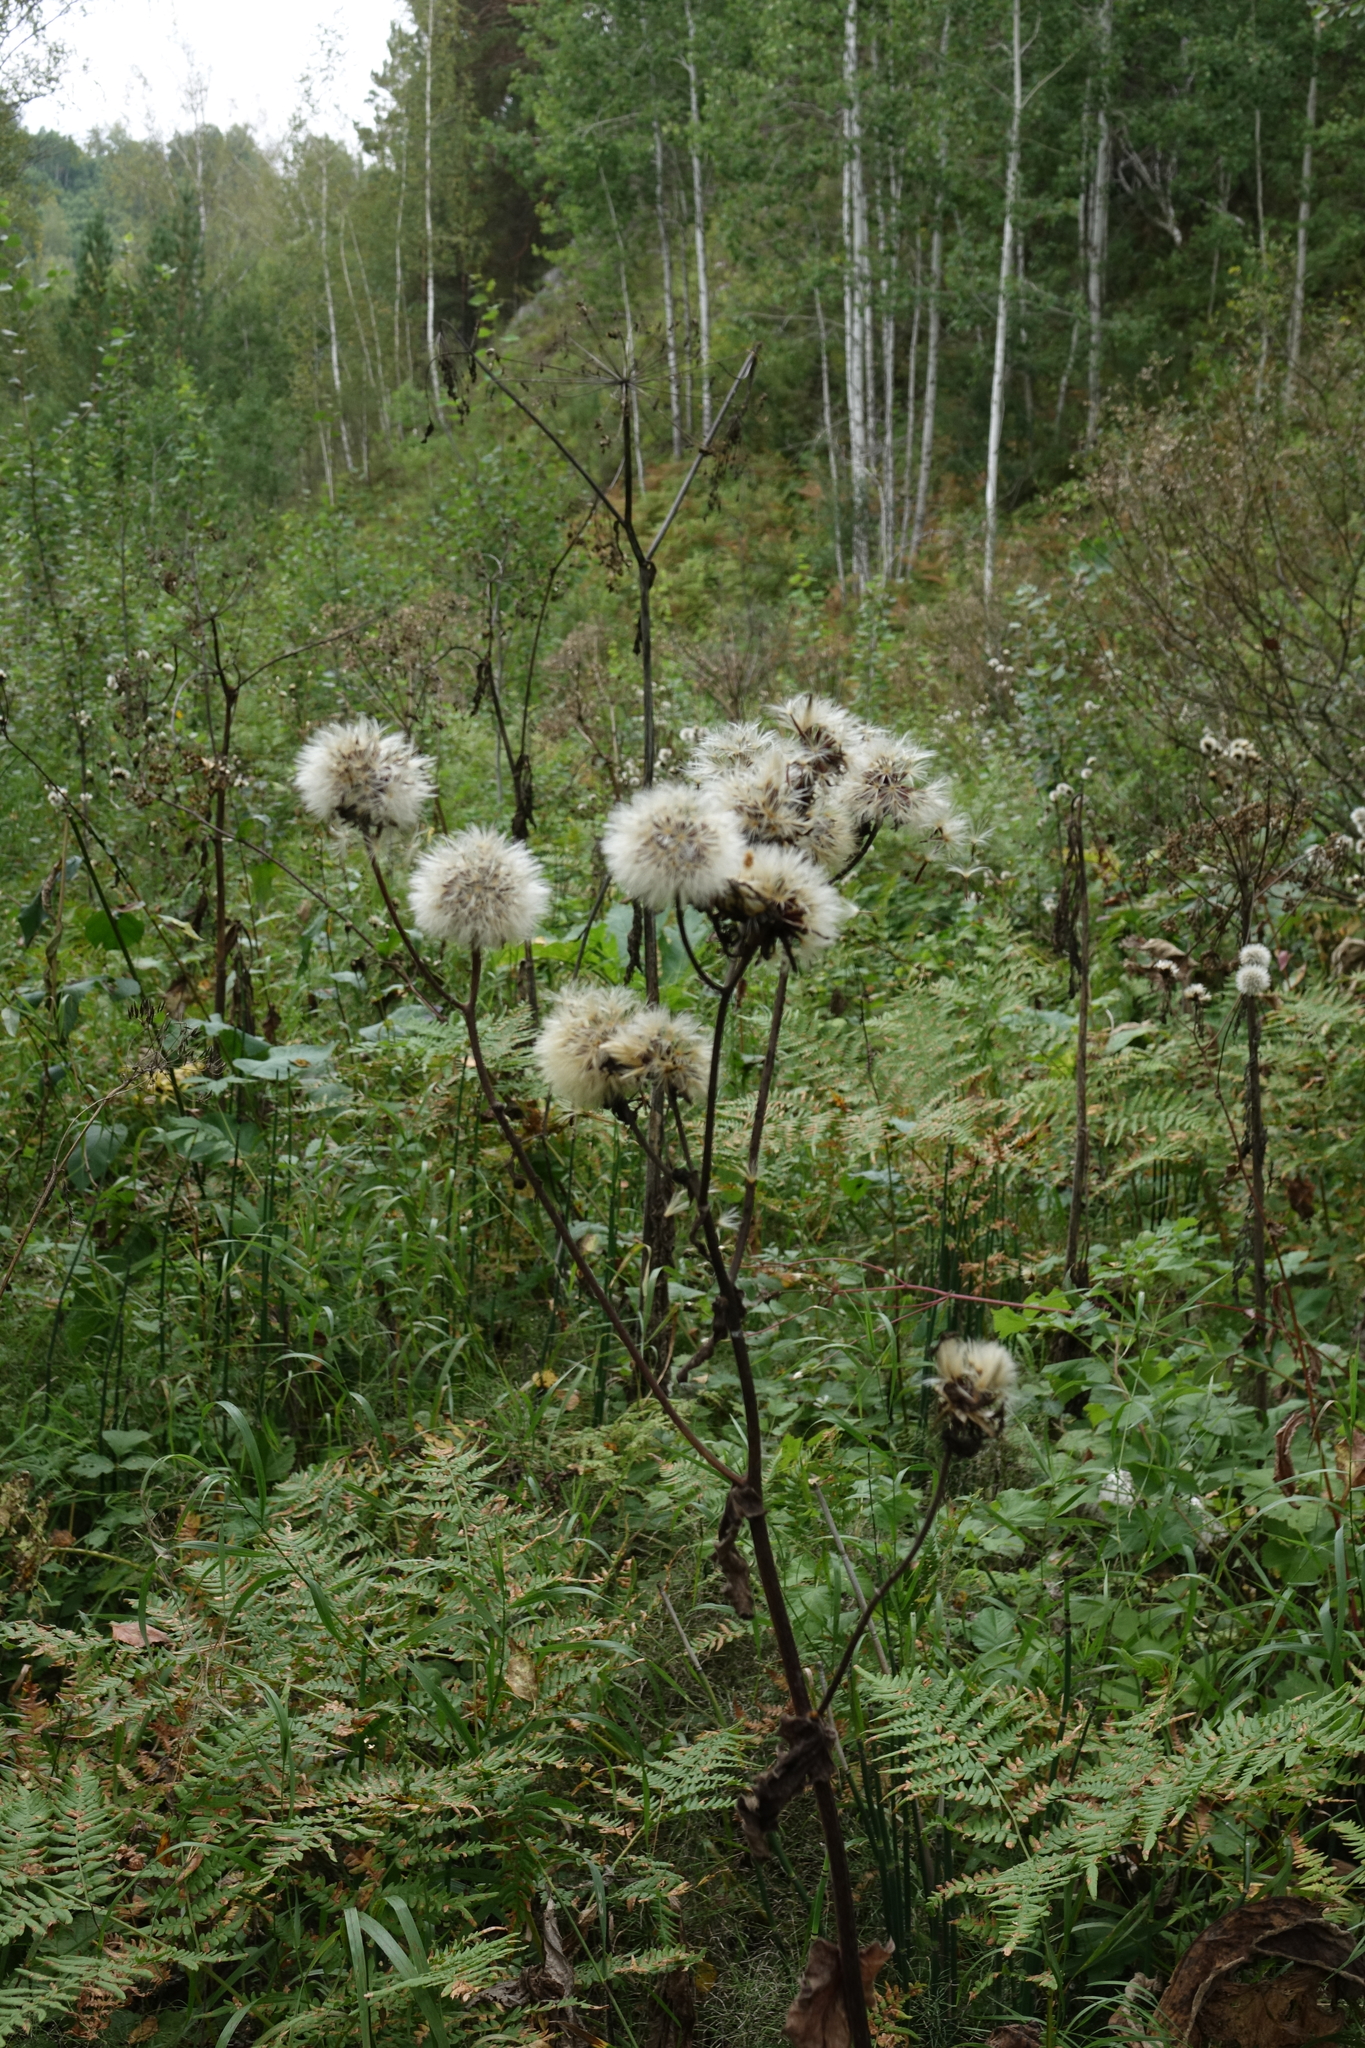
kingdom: Plantae
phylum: Tracheophyta
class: Magnoliopsida
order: Asterales
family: Asteraceae
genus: Crepis
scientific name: Crepis sibirica
